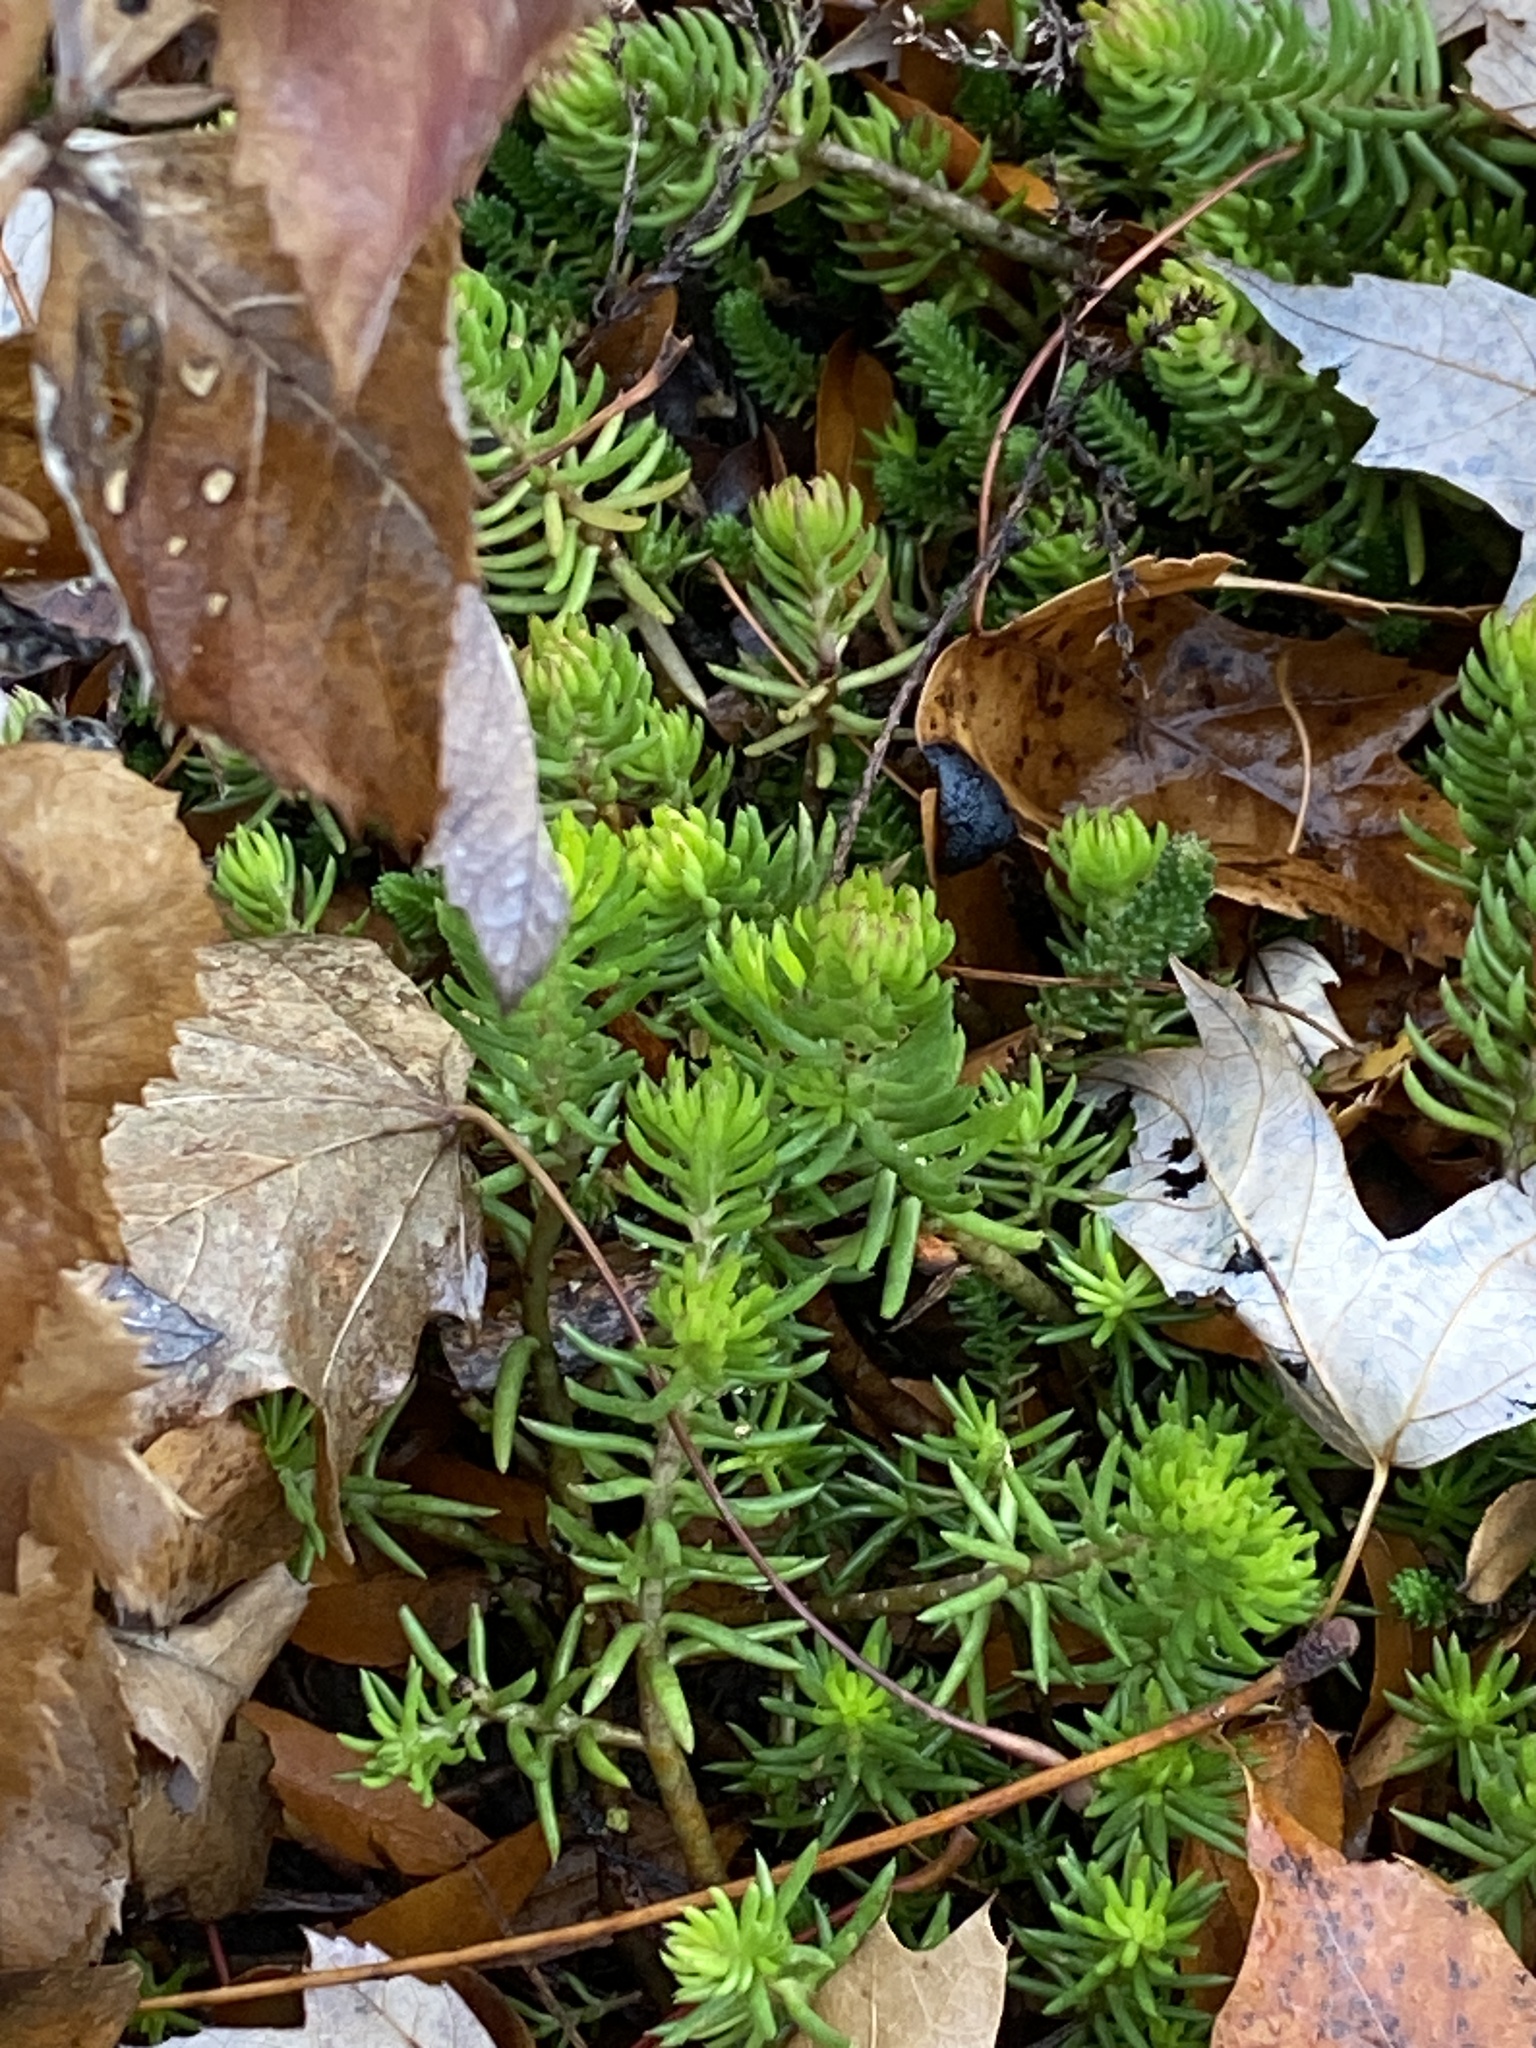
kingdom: Plantae
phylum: Tracheophyta
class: Magnoliopsida
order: Saxifragales
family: Crassulaceae
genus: Petrosedum
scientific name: Petrosedum rupestre
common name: Jenny's stonecrop
